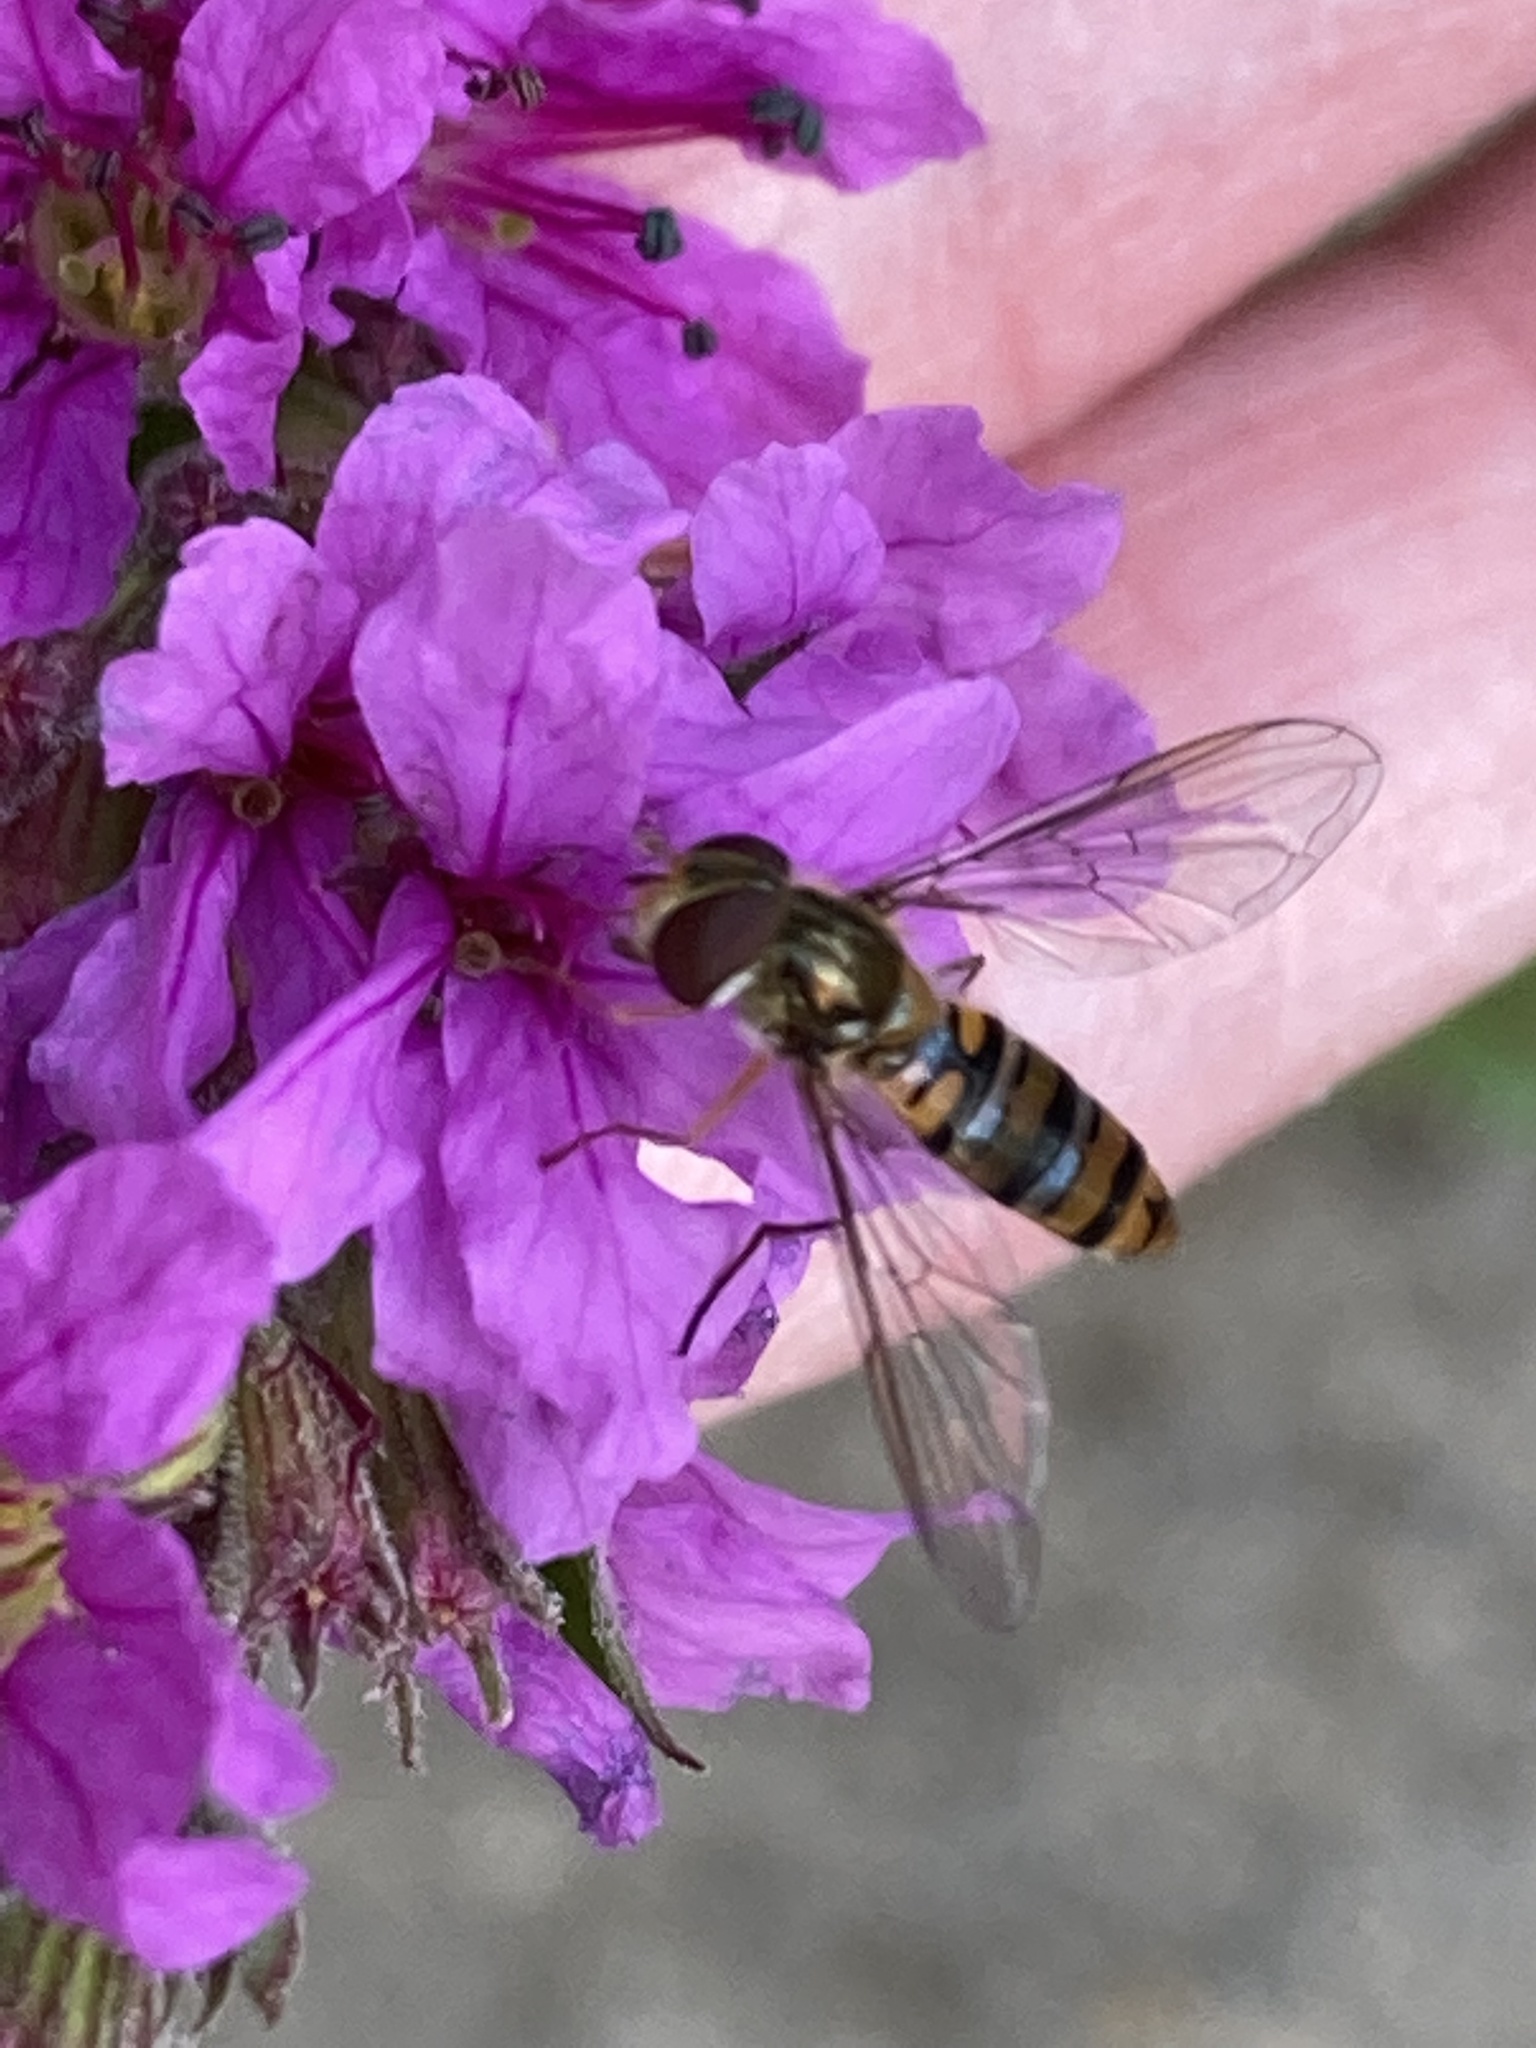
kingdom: Animalia
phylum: Arthropoda
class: Insecta
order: Diptera
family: Syrphidae
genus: Episyrphus
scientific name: Episyrphus balteatus
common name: Marmalade hoverfly
